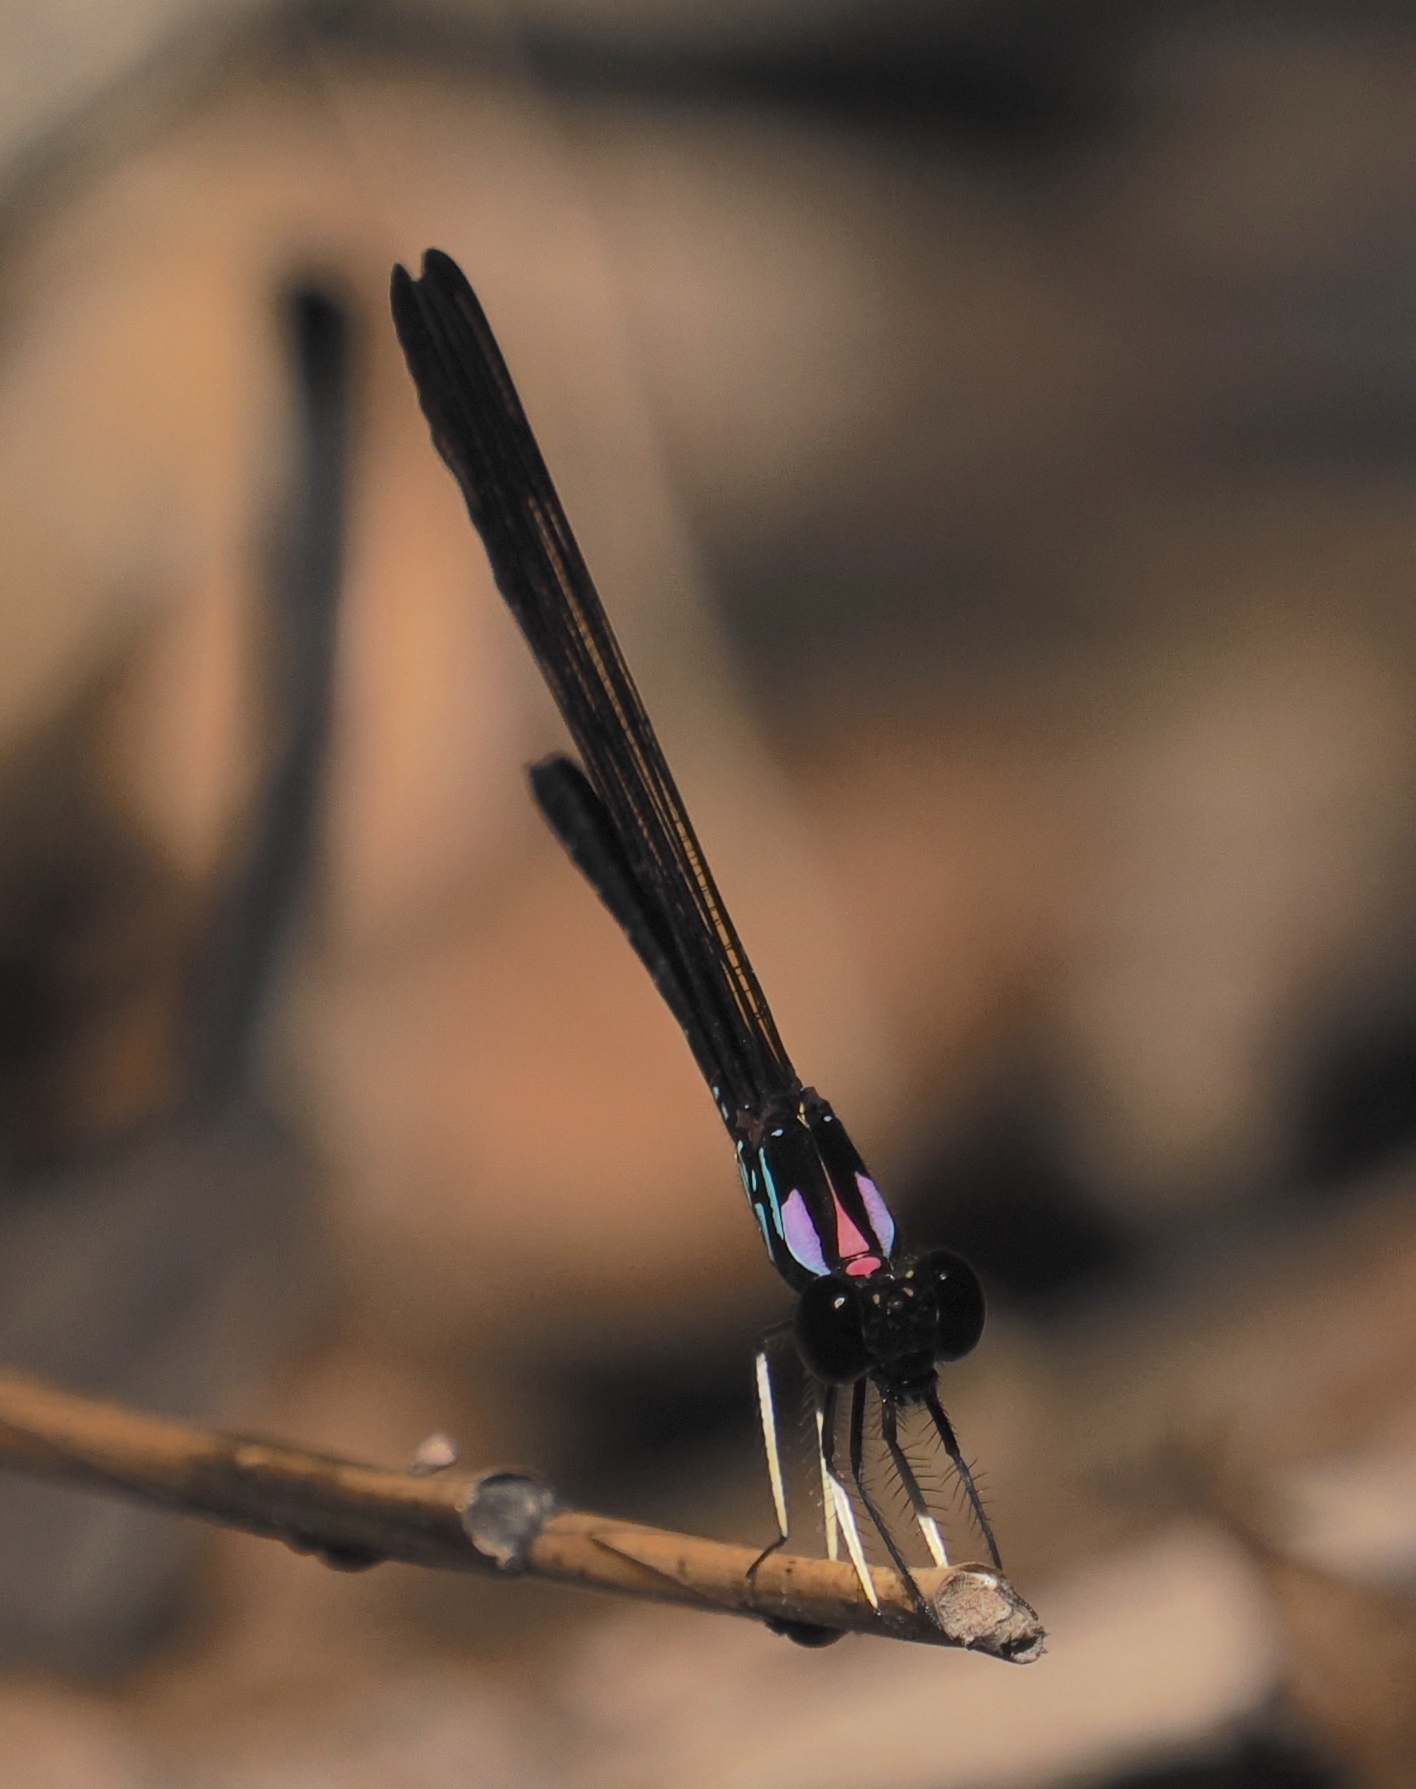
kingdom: Animalia
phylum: Arthropoda
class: Insecta
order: Odonata
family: Chlorocyphidae
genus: Heliocypha
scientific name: Heliocypha biforata
